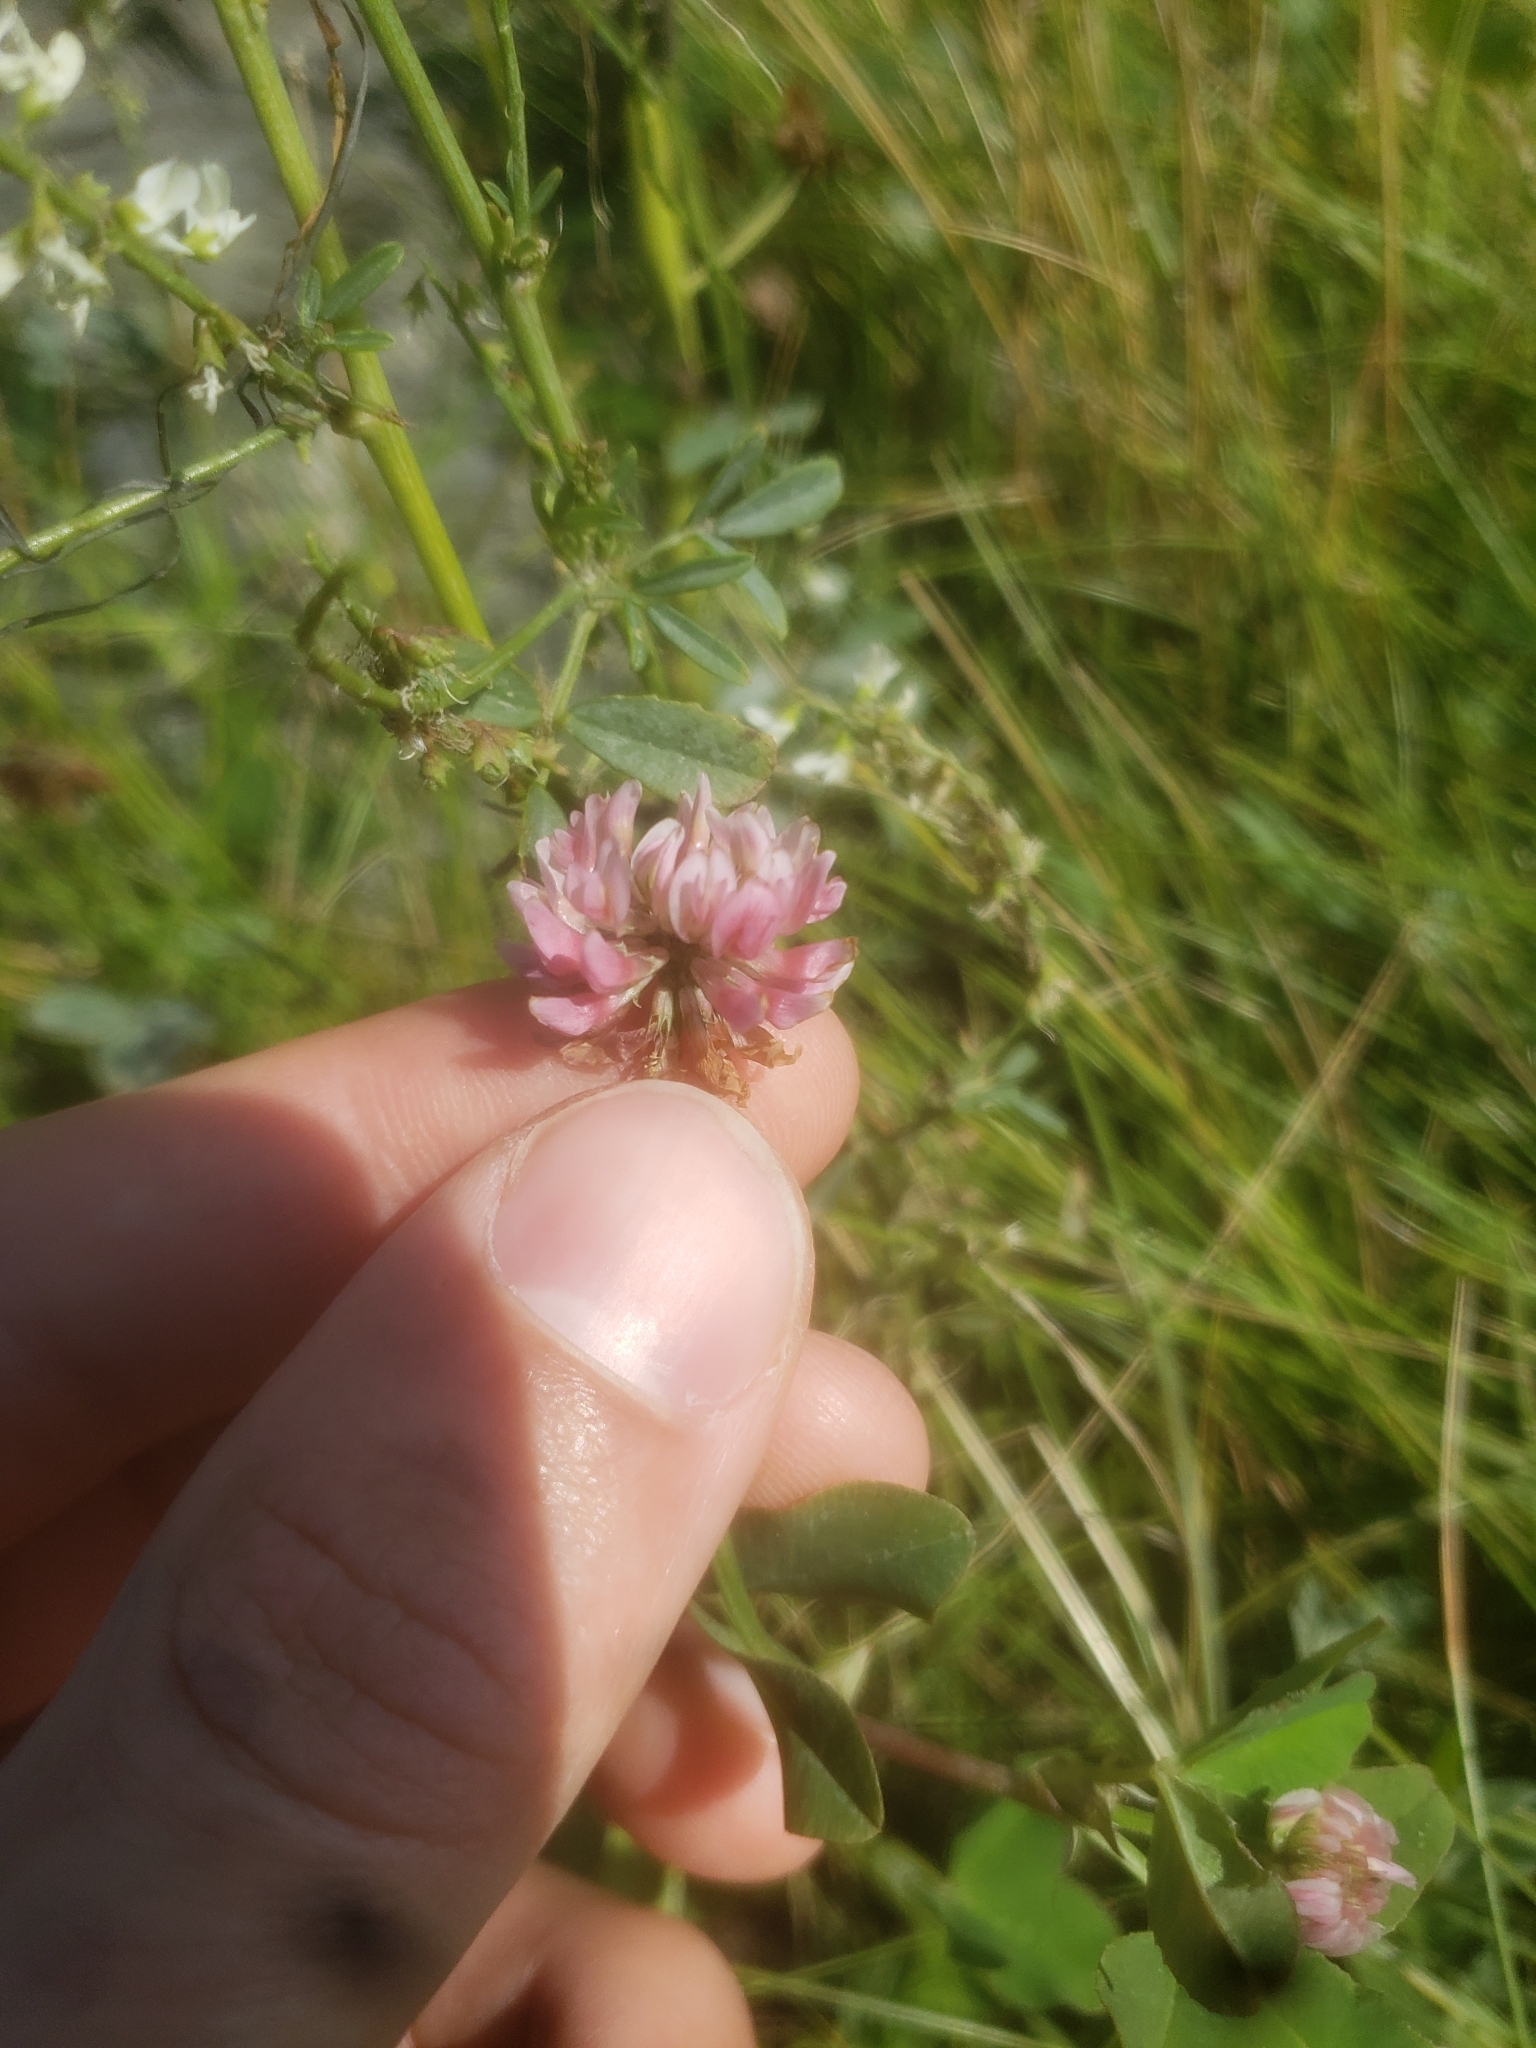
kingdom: Plantae
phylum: Tracheophyta
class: Magnoliopsida
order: Fabales
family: Fabaceae
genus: Trifolium
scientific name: Trifolium pratense
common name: Red clover
